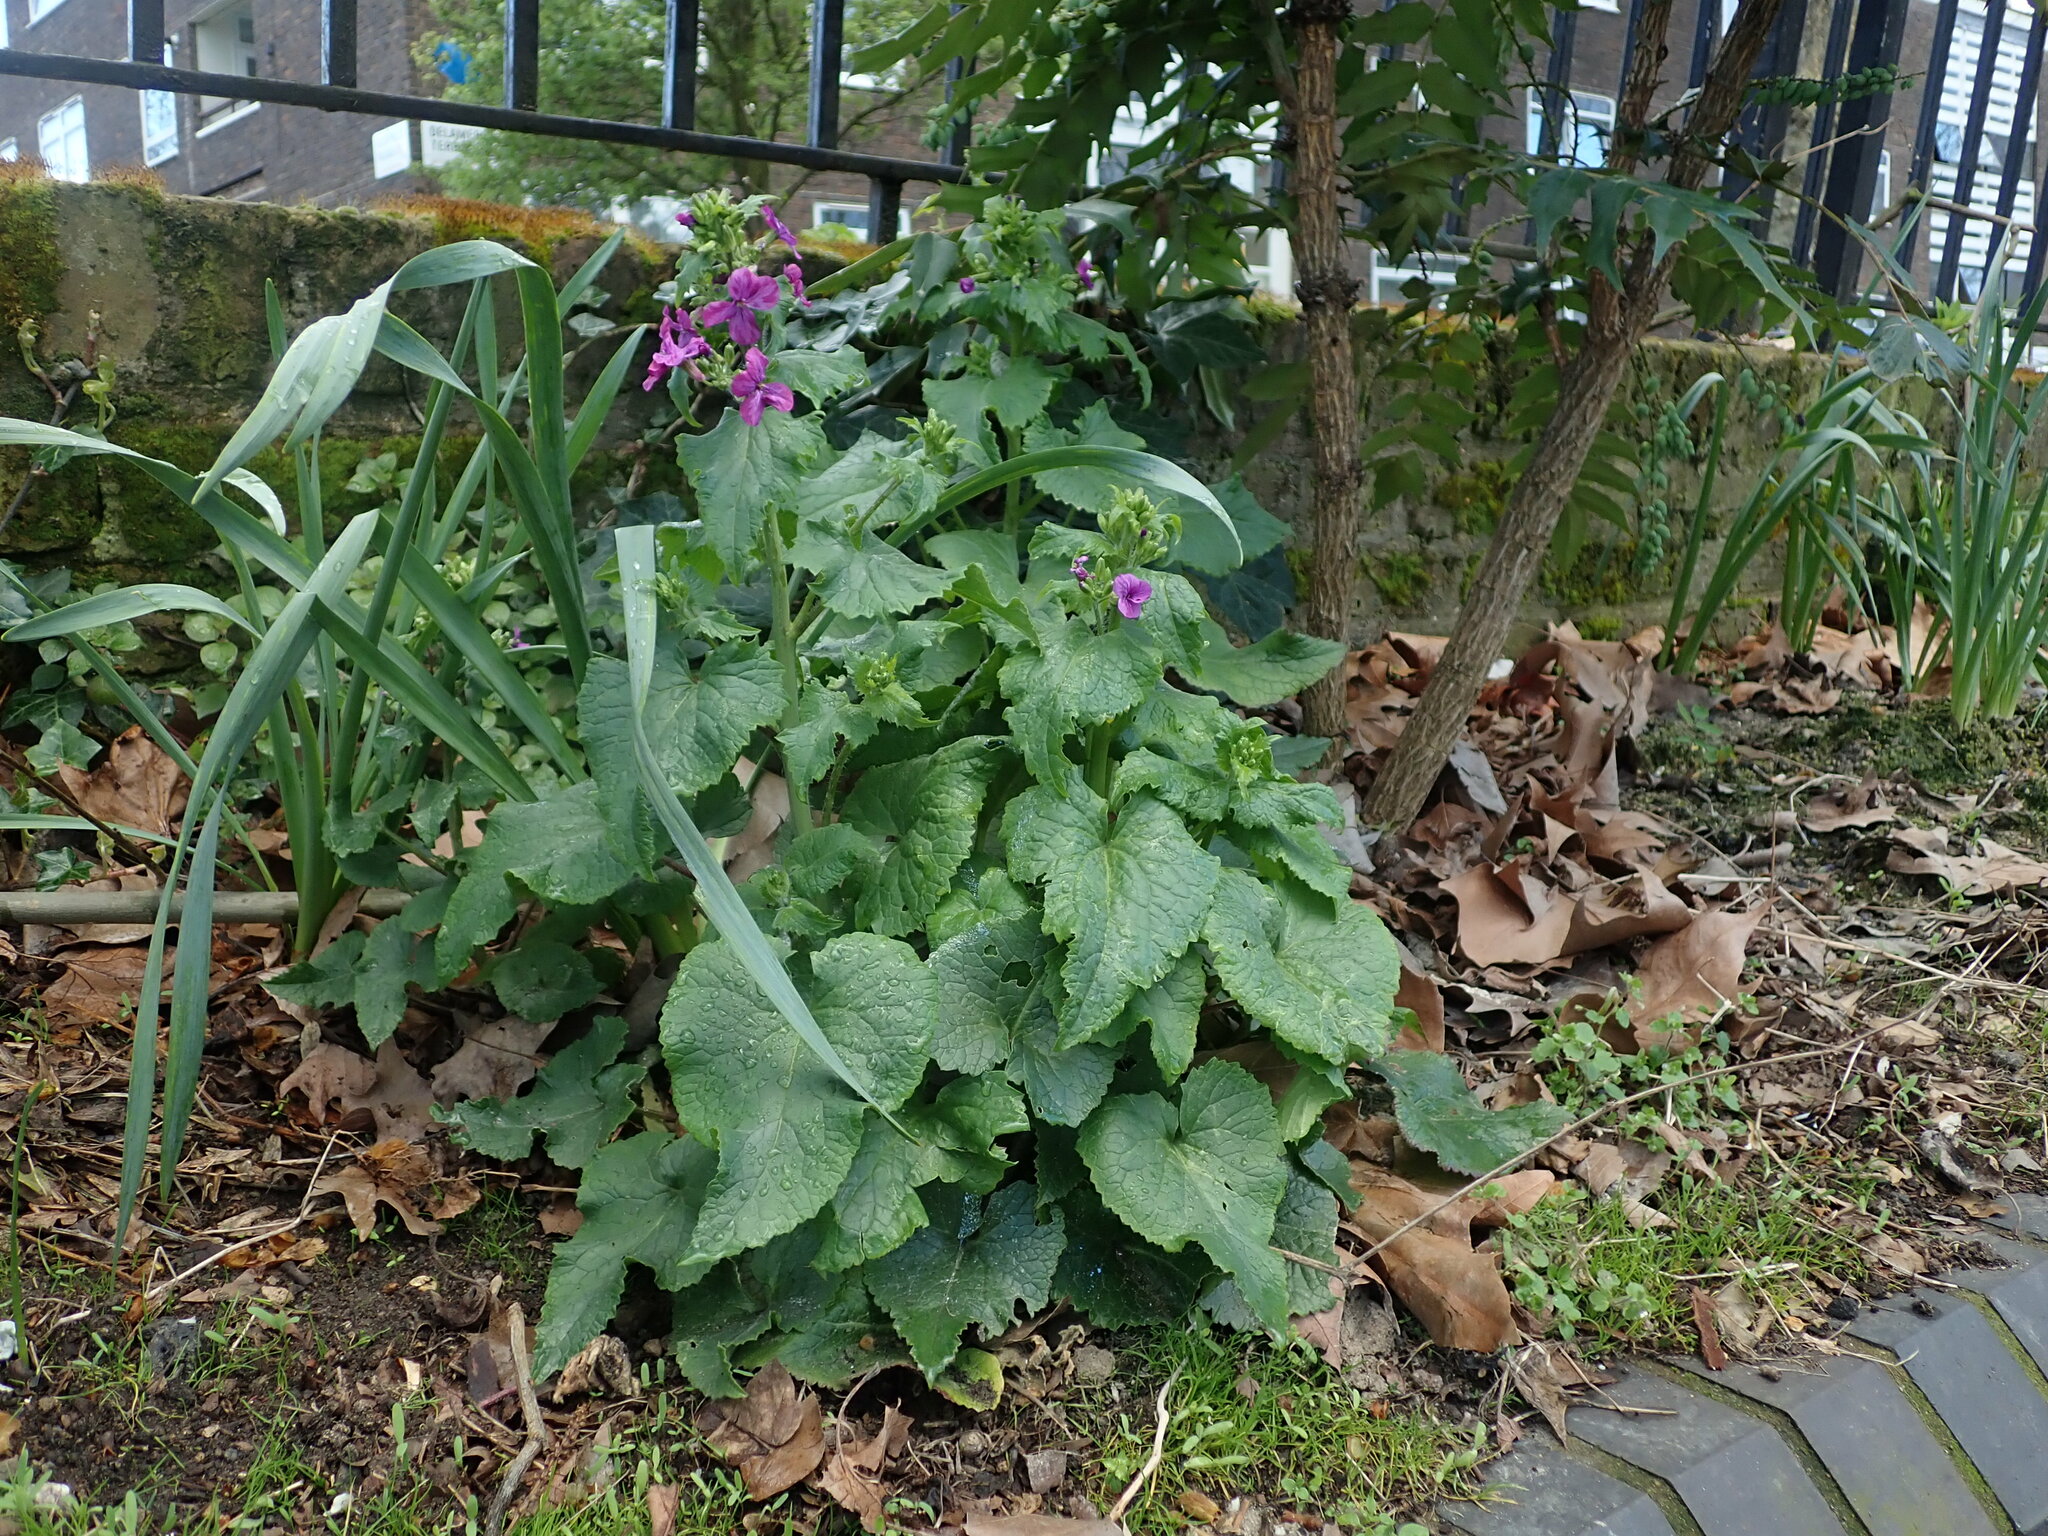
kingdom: Plantae
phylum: Tracheophyta
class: Magnoliopsida
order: Brassicales
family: Brassicaceae
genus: Lunaria
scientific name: Lunaria annua
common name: Honesty
